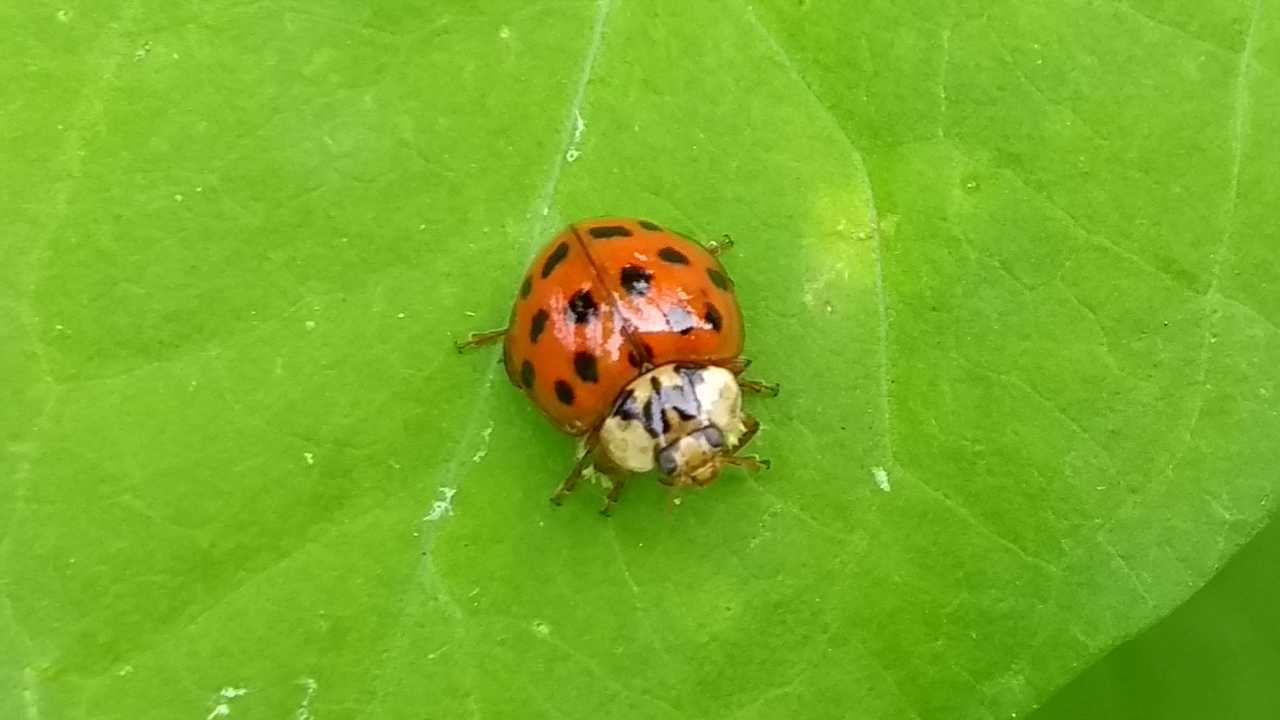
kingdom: Animalia
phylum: Arthropoda
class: Insecta
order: Coleoptera
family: Coccinellidae
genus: Harmonia
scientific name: Harmonia axyridis
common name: Harlequin ladybird
